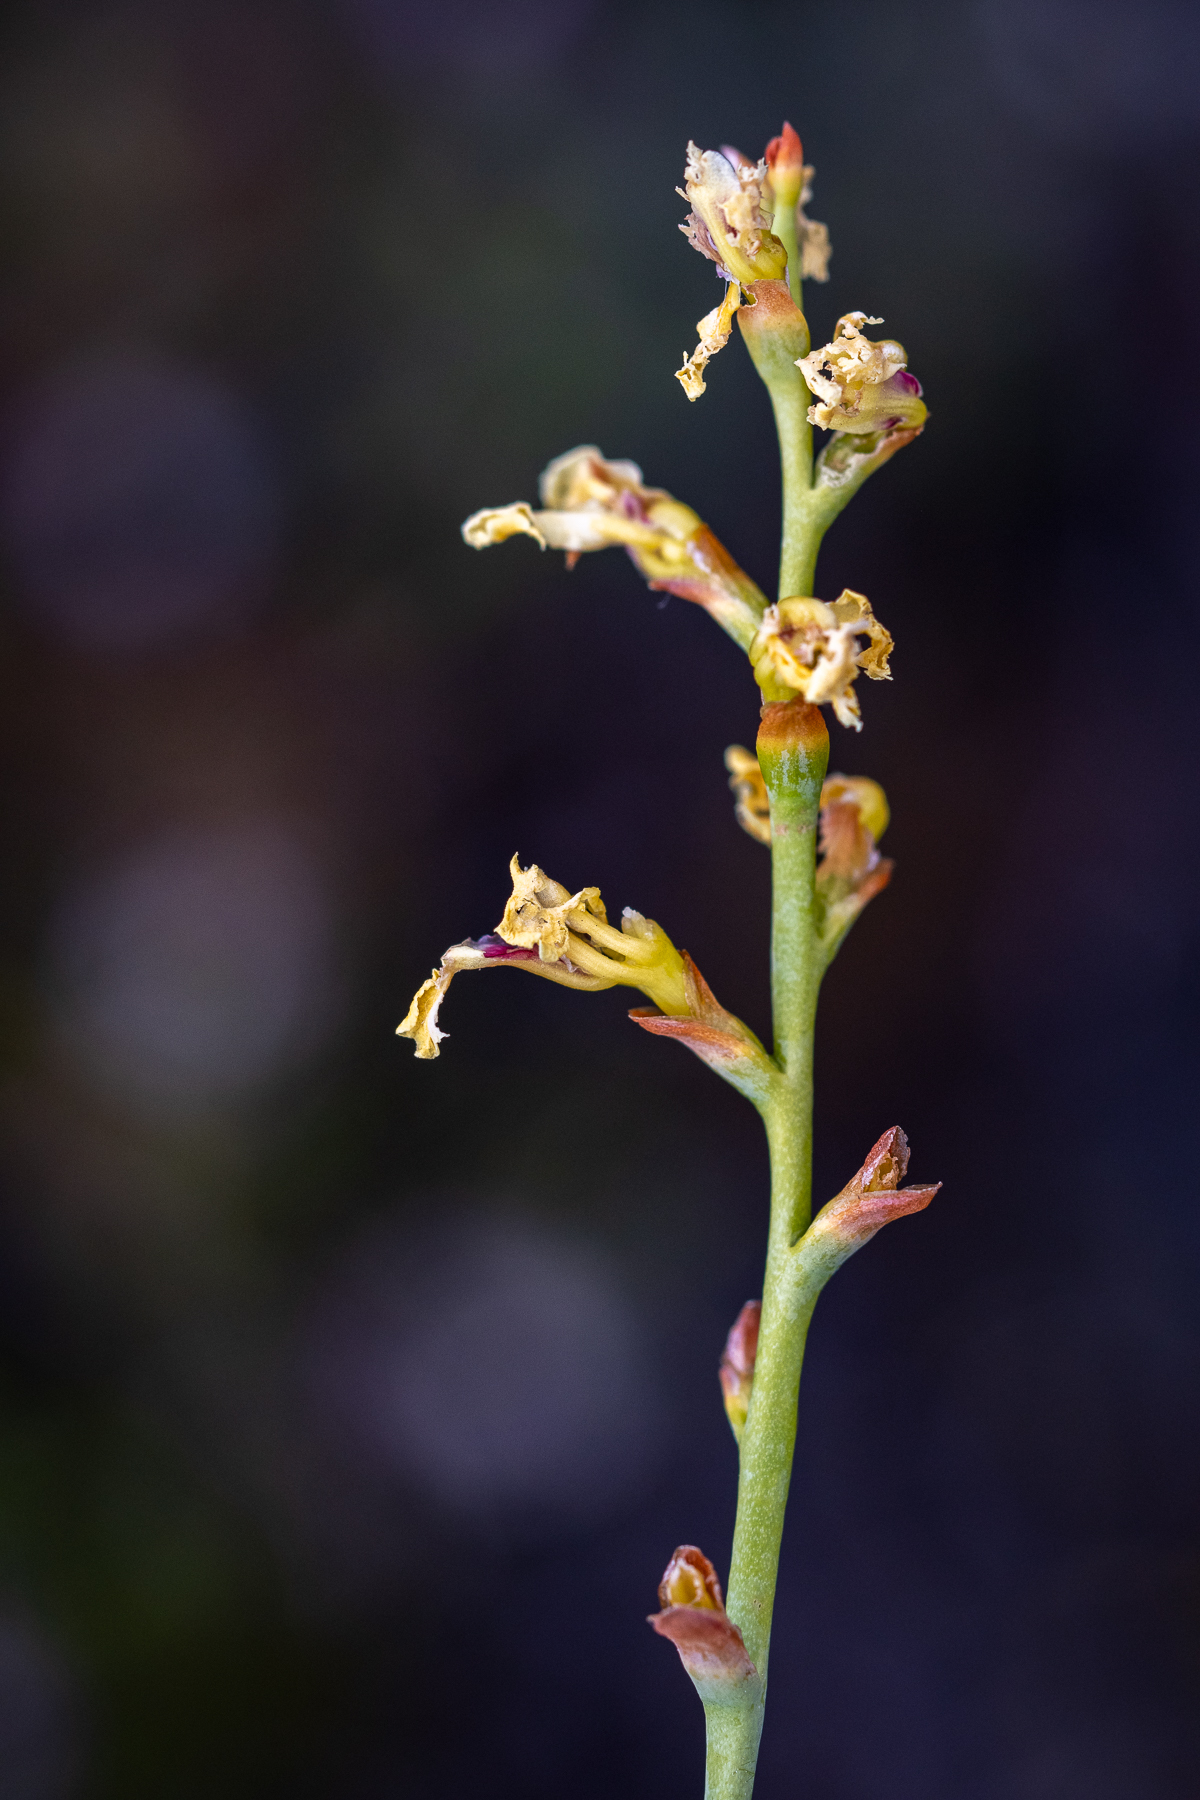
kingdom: Plantae
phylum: Tracheophyta
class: Liliopsida
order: Asparagales
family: Iridaceae
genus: Tritoniopsis
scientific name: Tritoniopsis unguicularis
